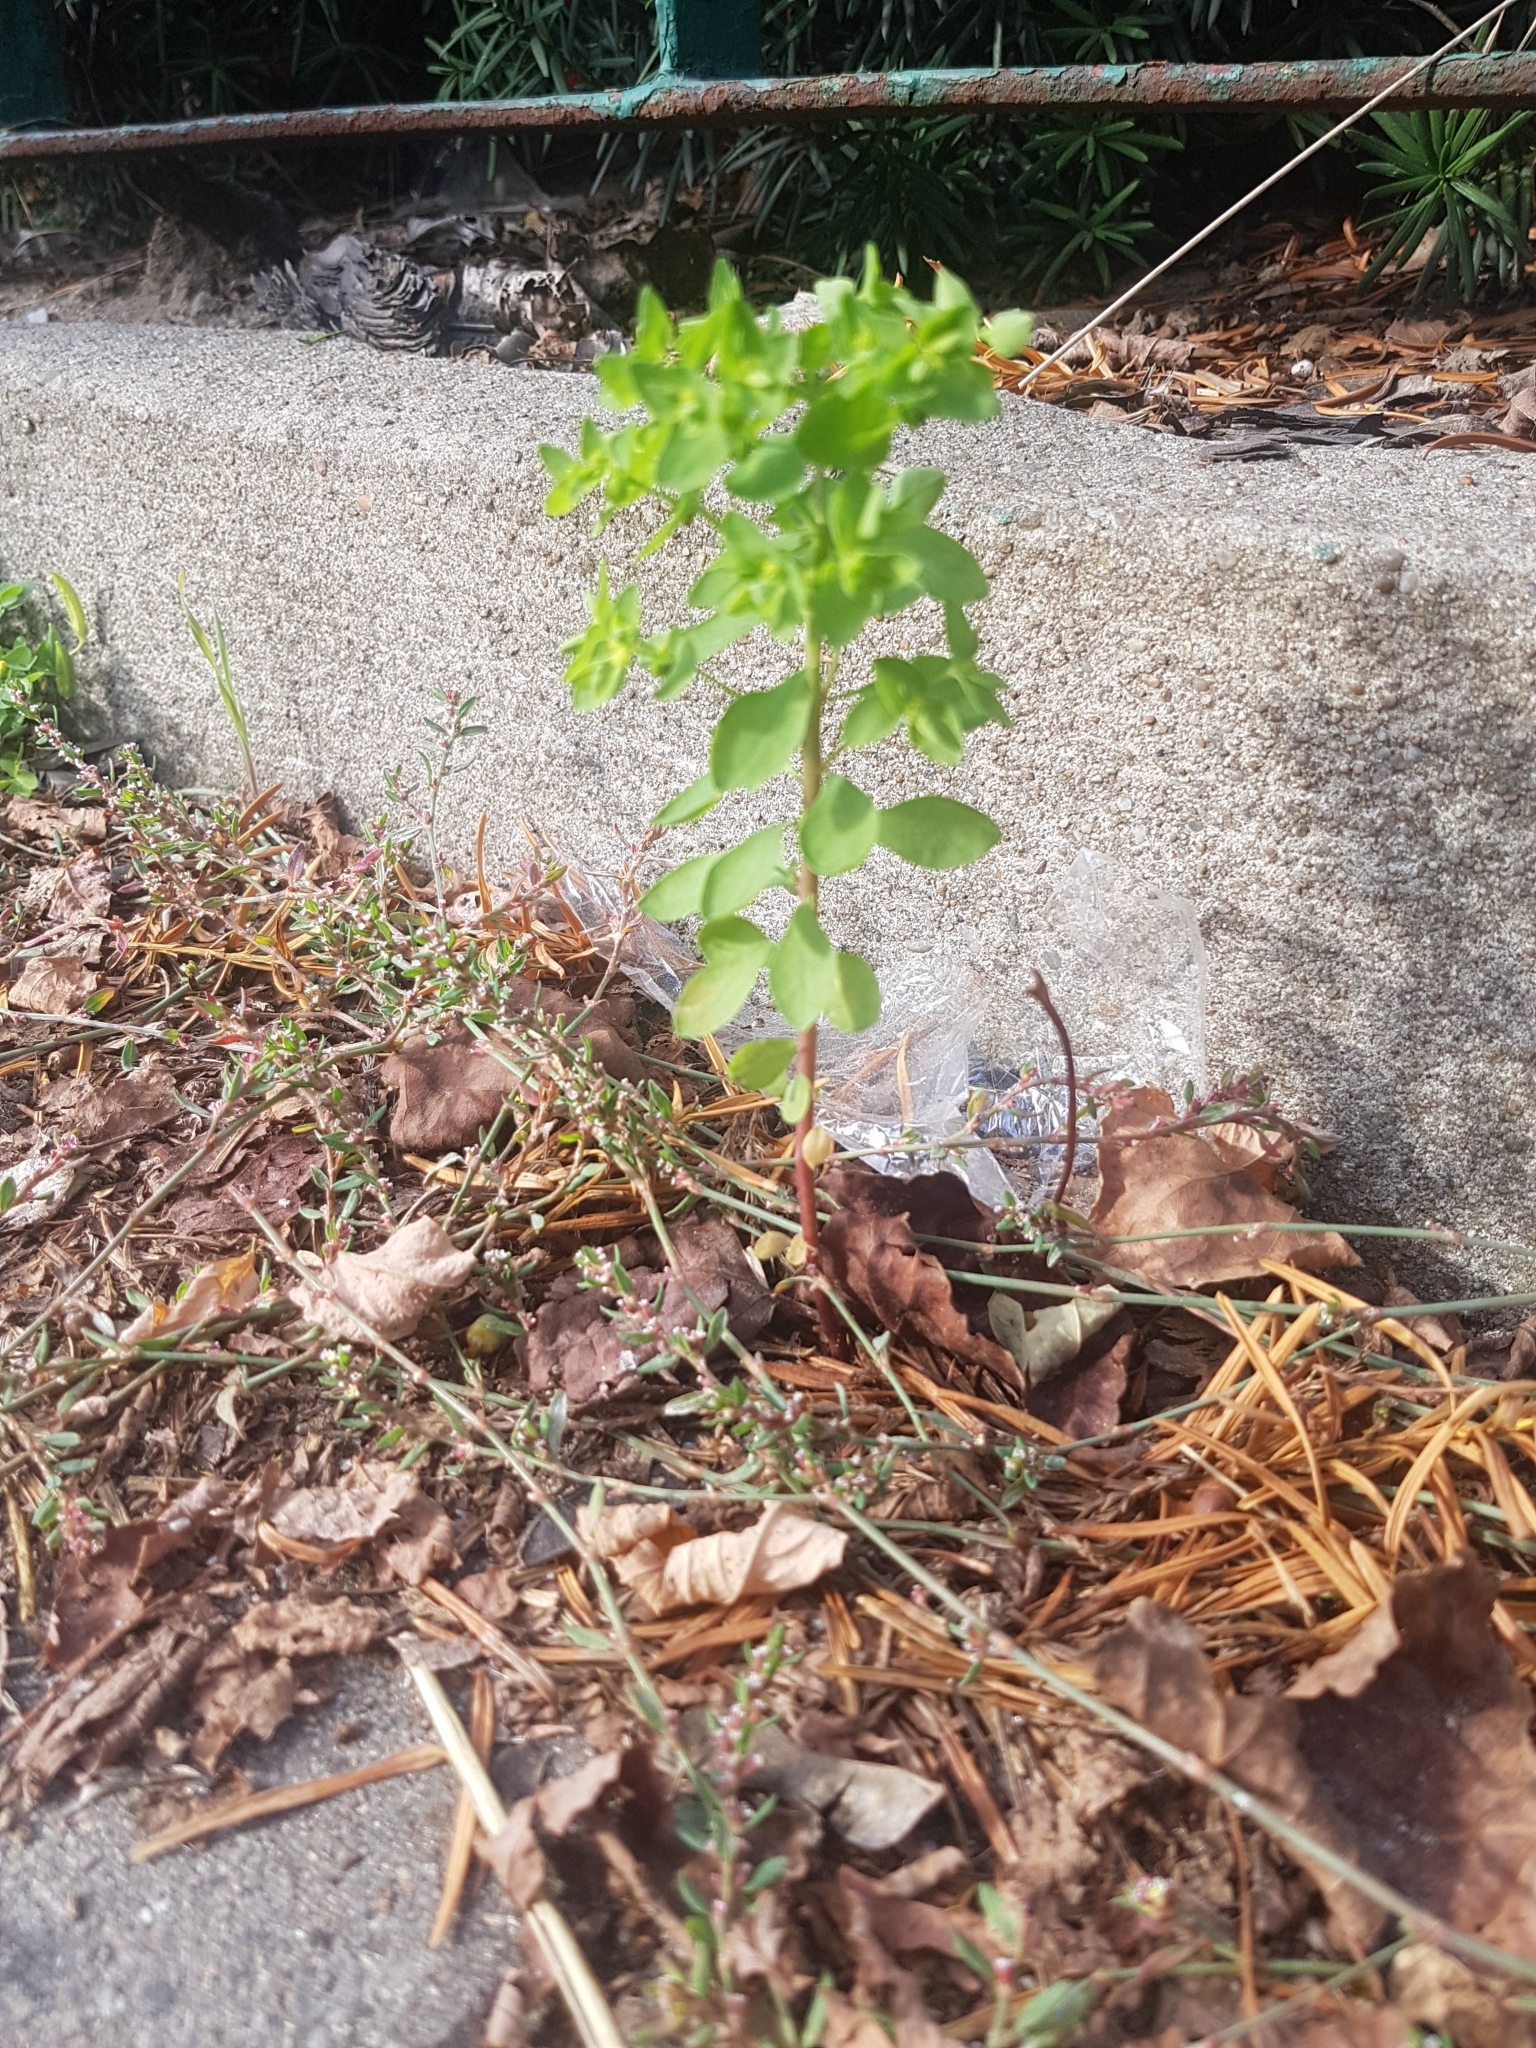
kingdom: Plantae
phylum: Tracheophyta
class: Magnoliopsida
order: Malpighiales
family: Euphorbiaceae
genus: Euphorbia
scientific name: Euphorbia peplus
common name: Petty spurge
